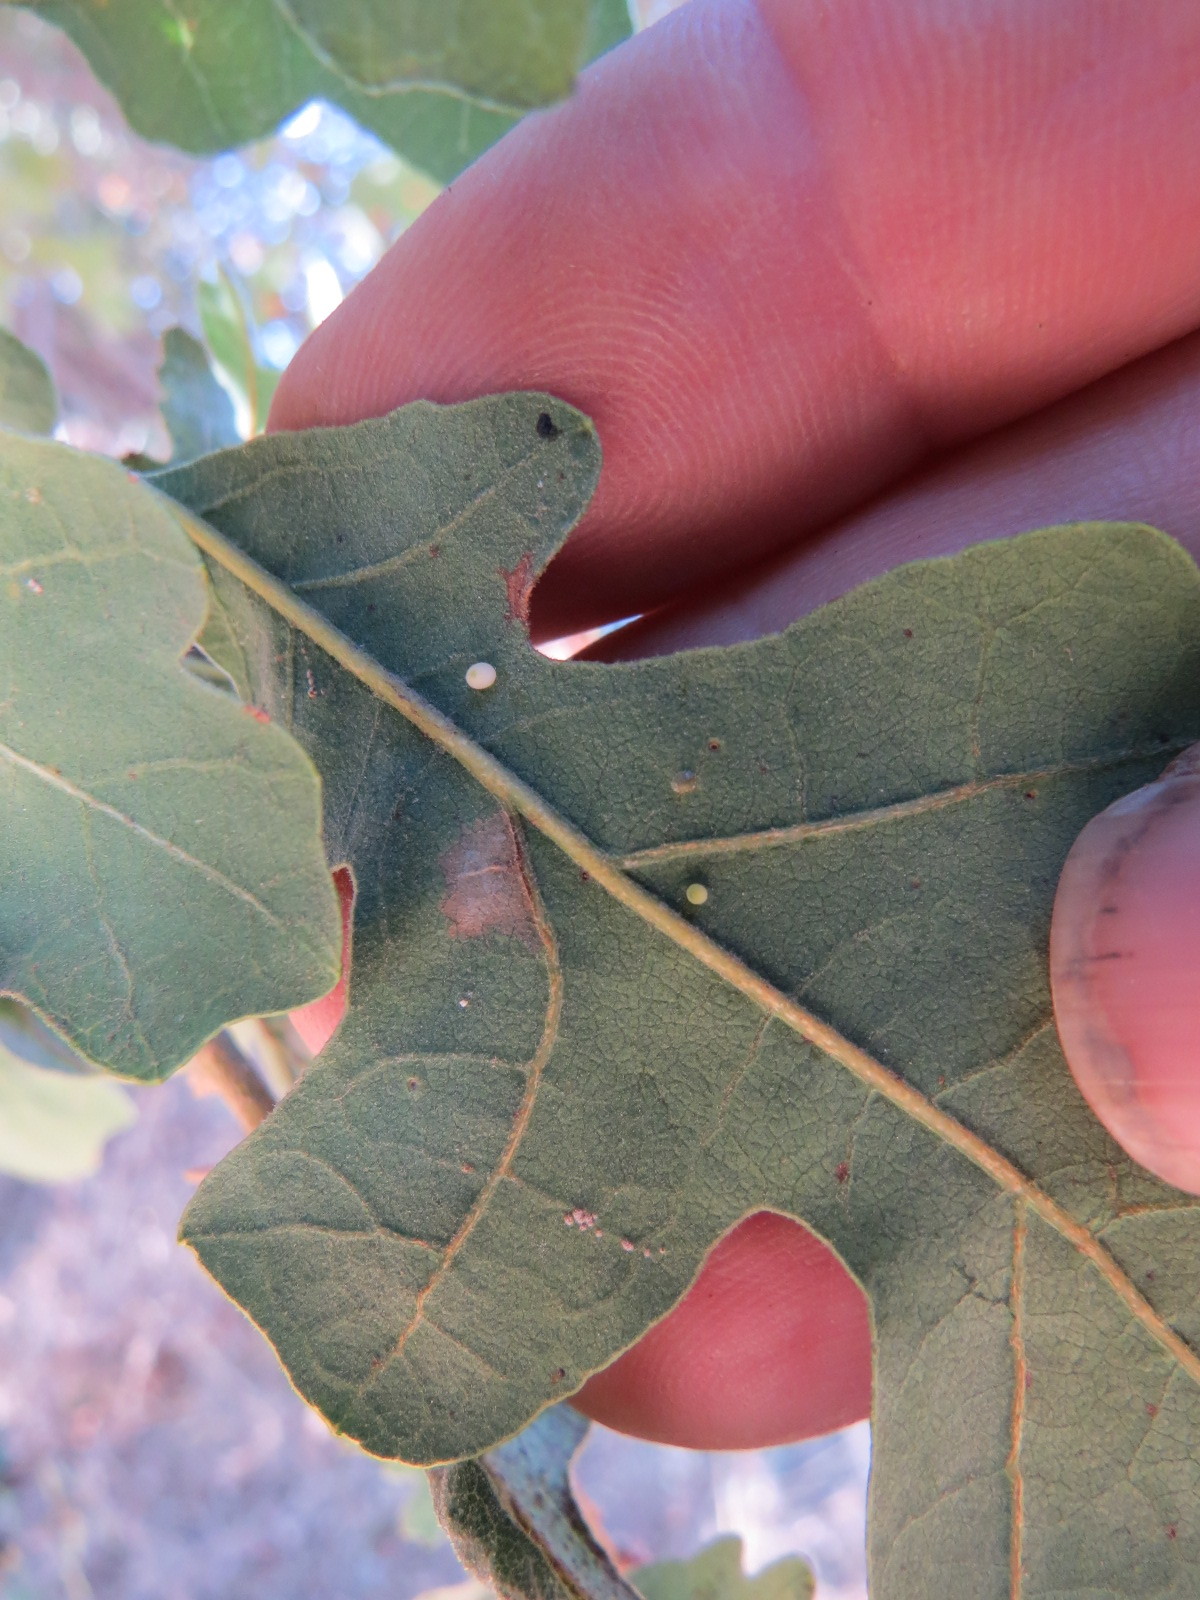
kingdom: Animalia
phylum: Arthropoda
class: Insecta
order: Hymenoptera
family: Cynipidae
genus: Neuroterus
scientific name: Neuroterus saltarius
